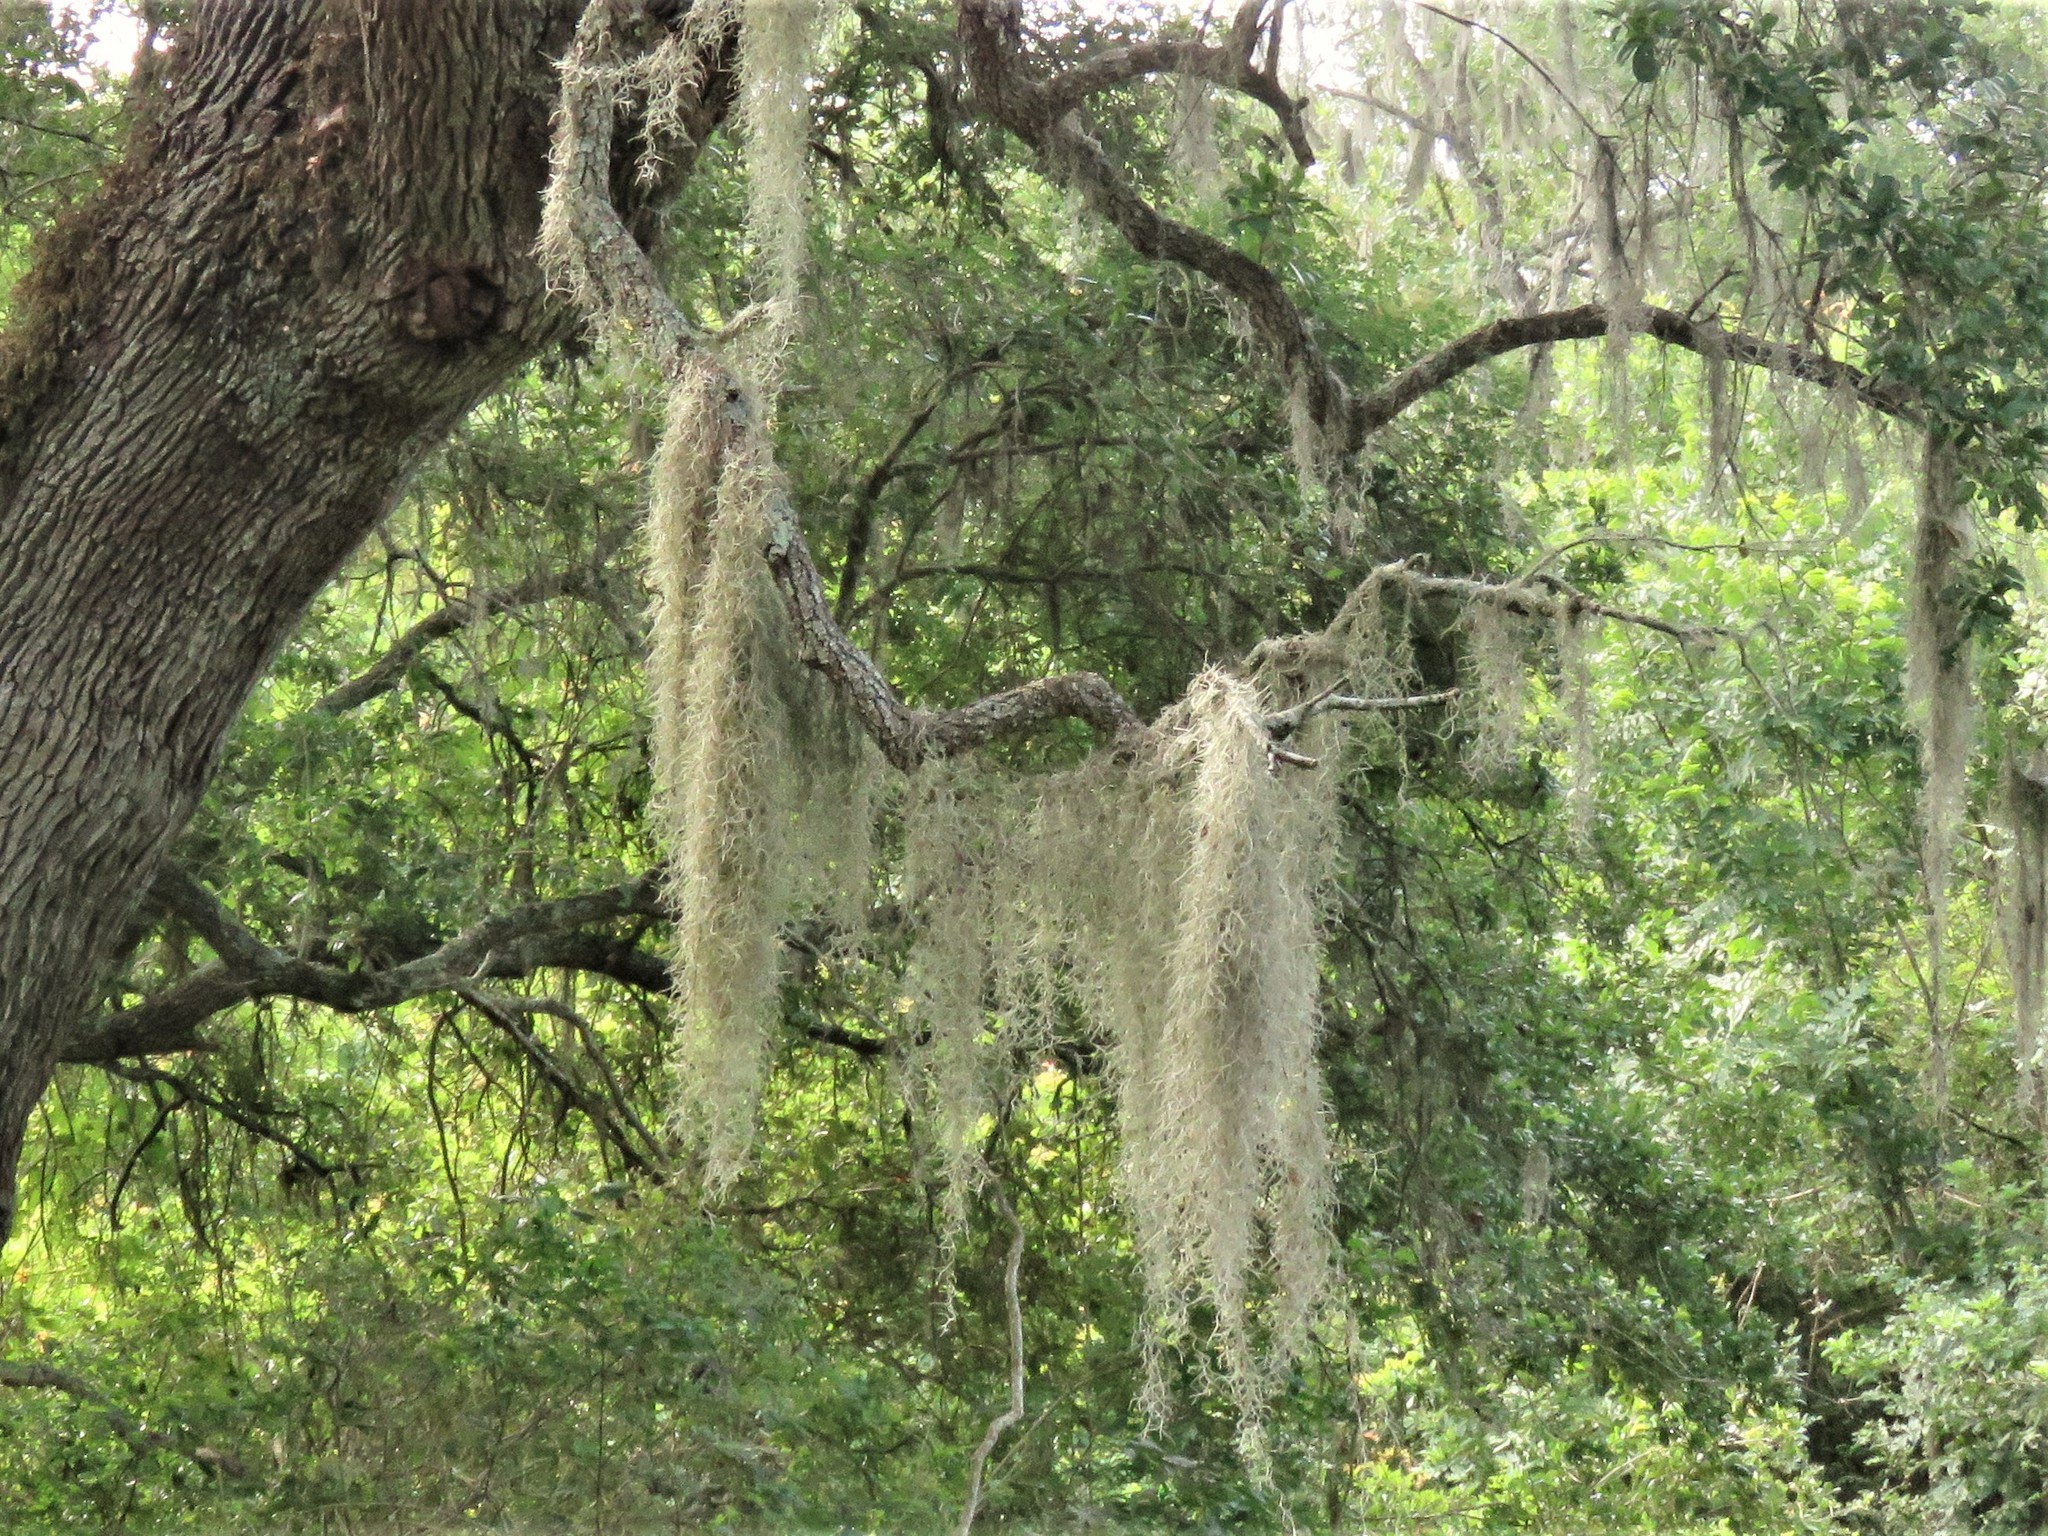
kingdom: Plantae
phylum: Tracheophyta
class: Liliopsida
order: Poales
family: Bromeliaceae
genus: Tillandsia
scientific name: Tillandsia usneoides
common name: Spanish moss
